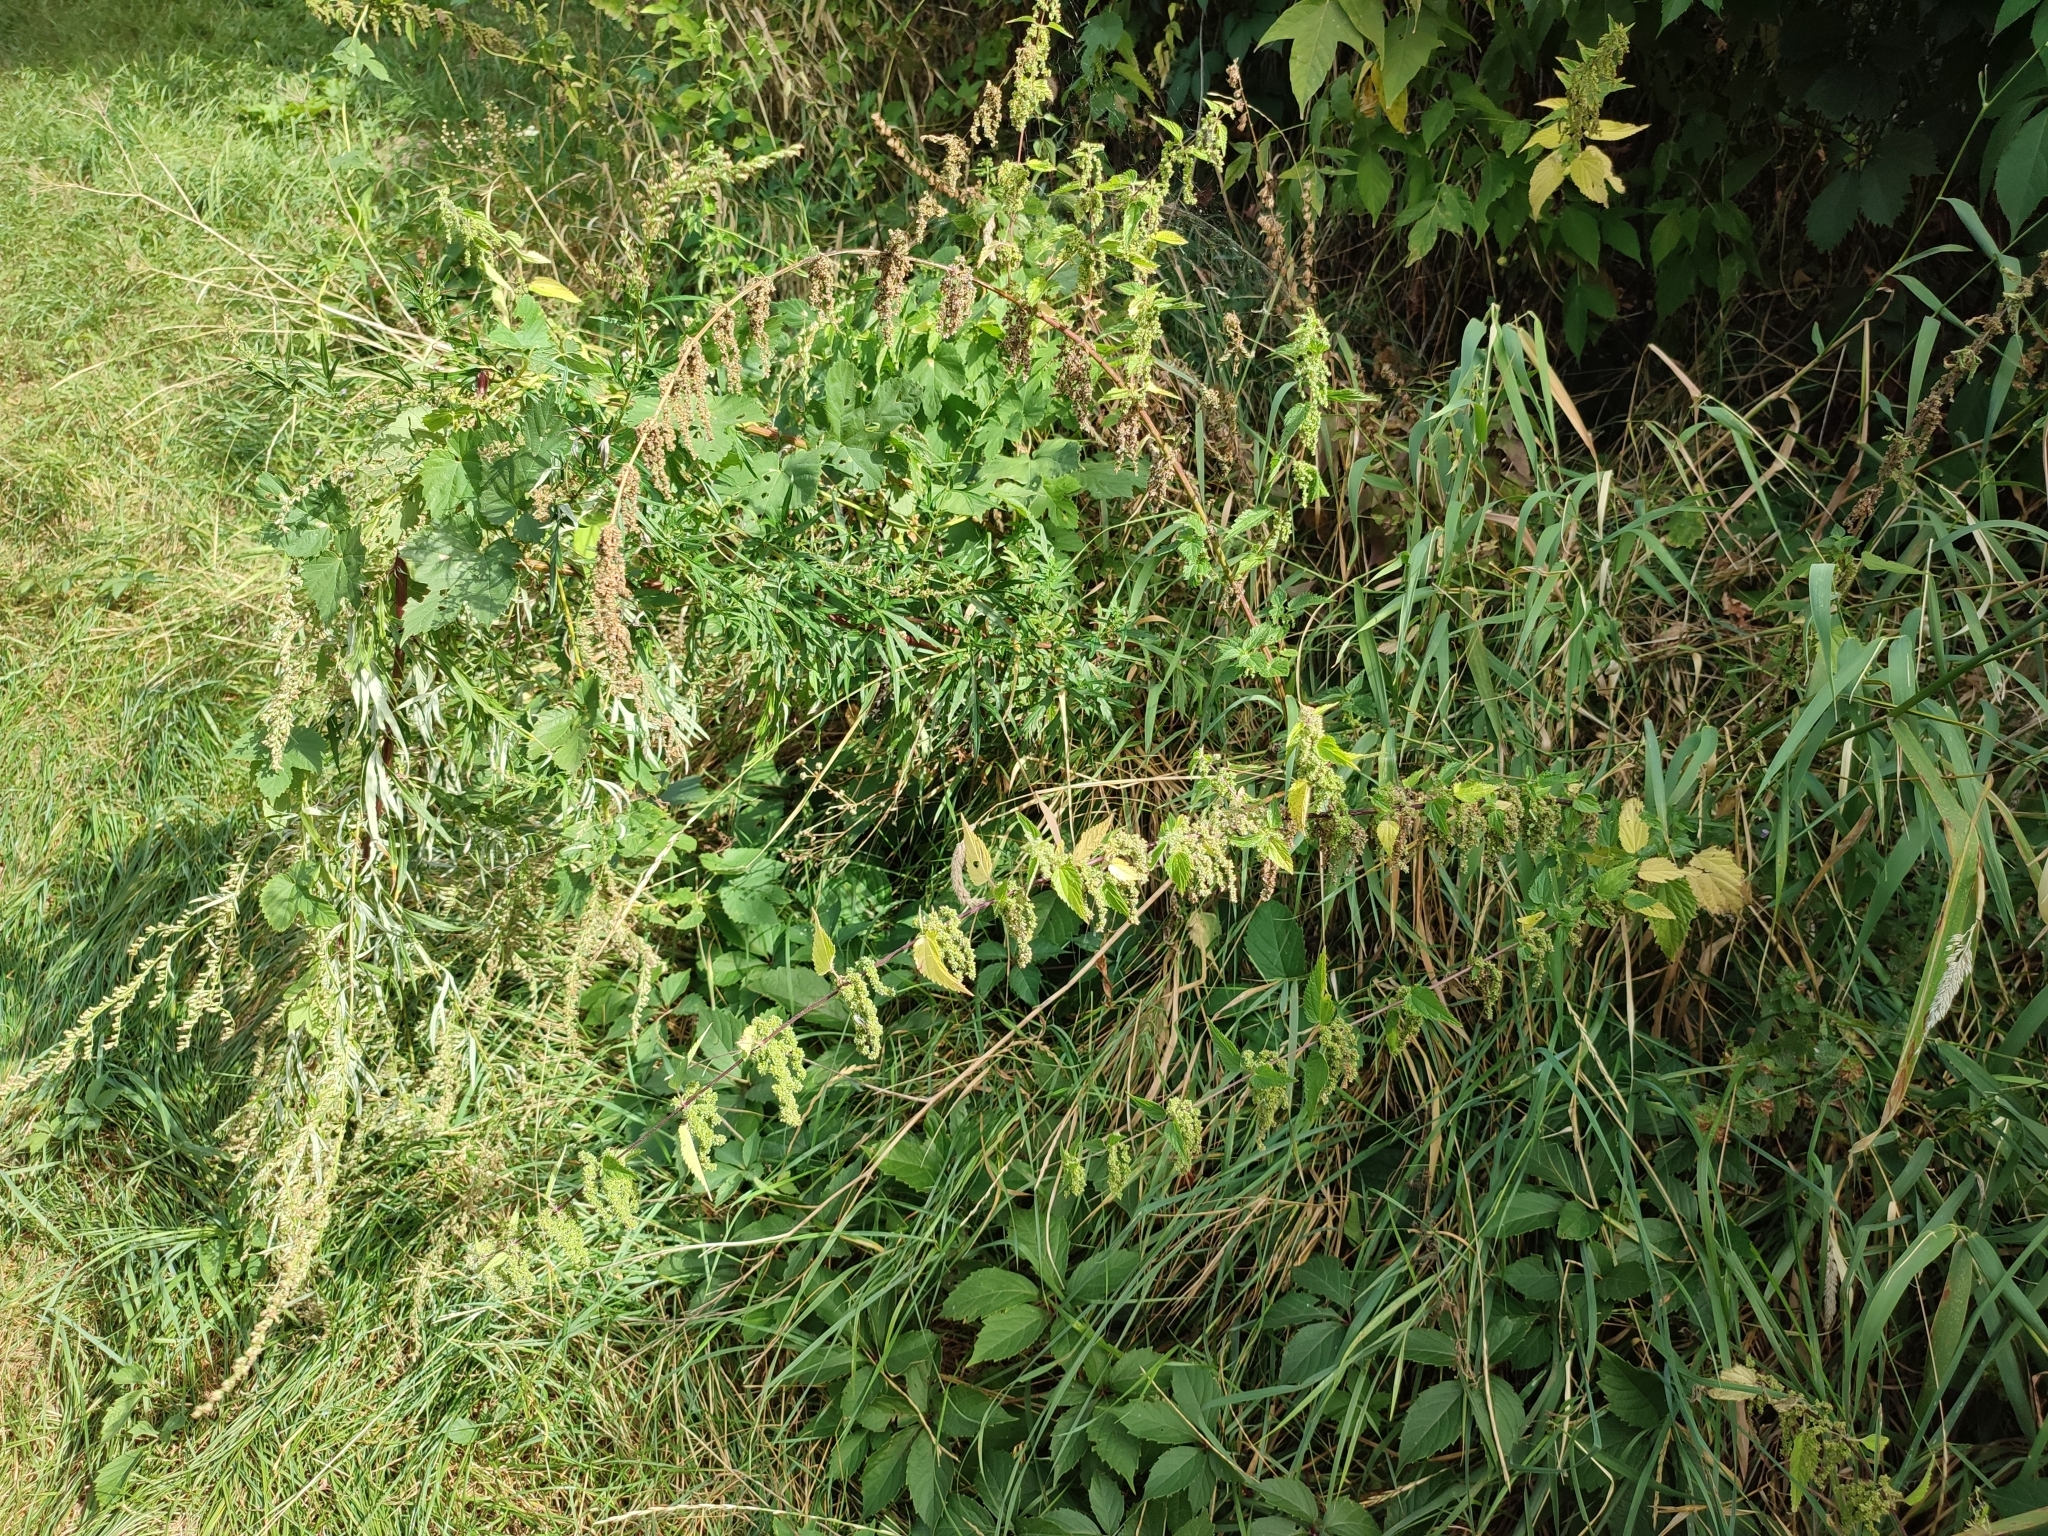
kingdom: Plantae
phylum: Tracheophyta
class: Magnoliopsida
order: Rosales
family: Urticaceae
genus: Urtica
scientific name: Urtica dioica
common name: Common nettle
